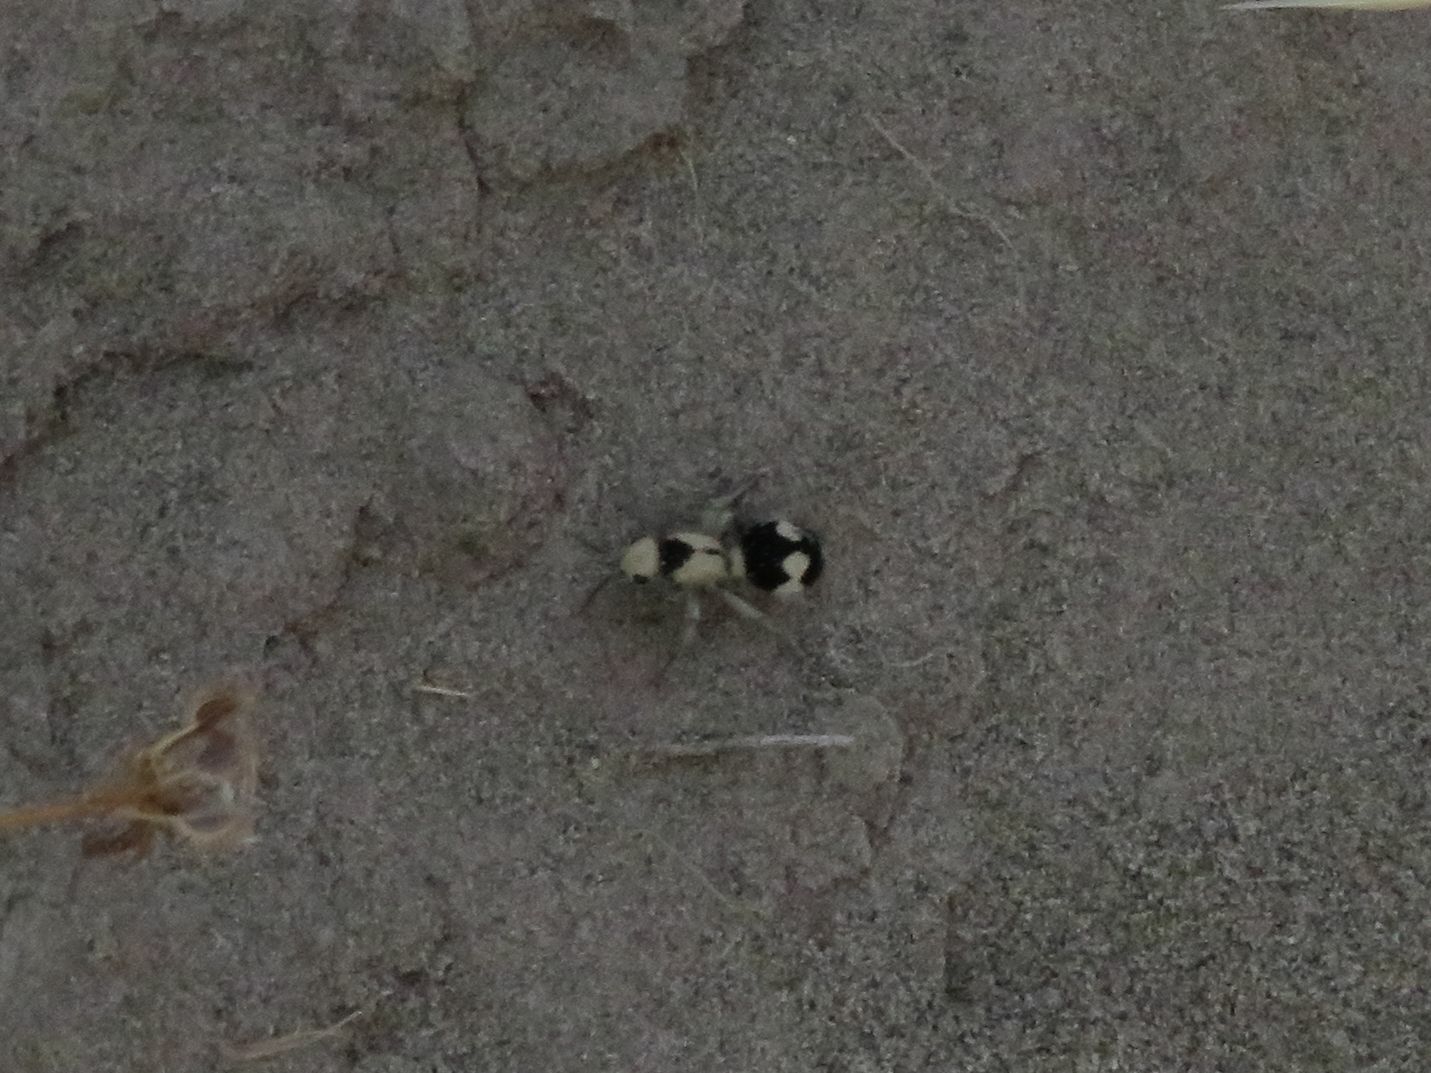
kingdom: Animalia
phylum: Arthropoda
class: Insecta
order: Hymenoptera
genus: Reedomutilla
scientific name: Reedomutilla
